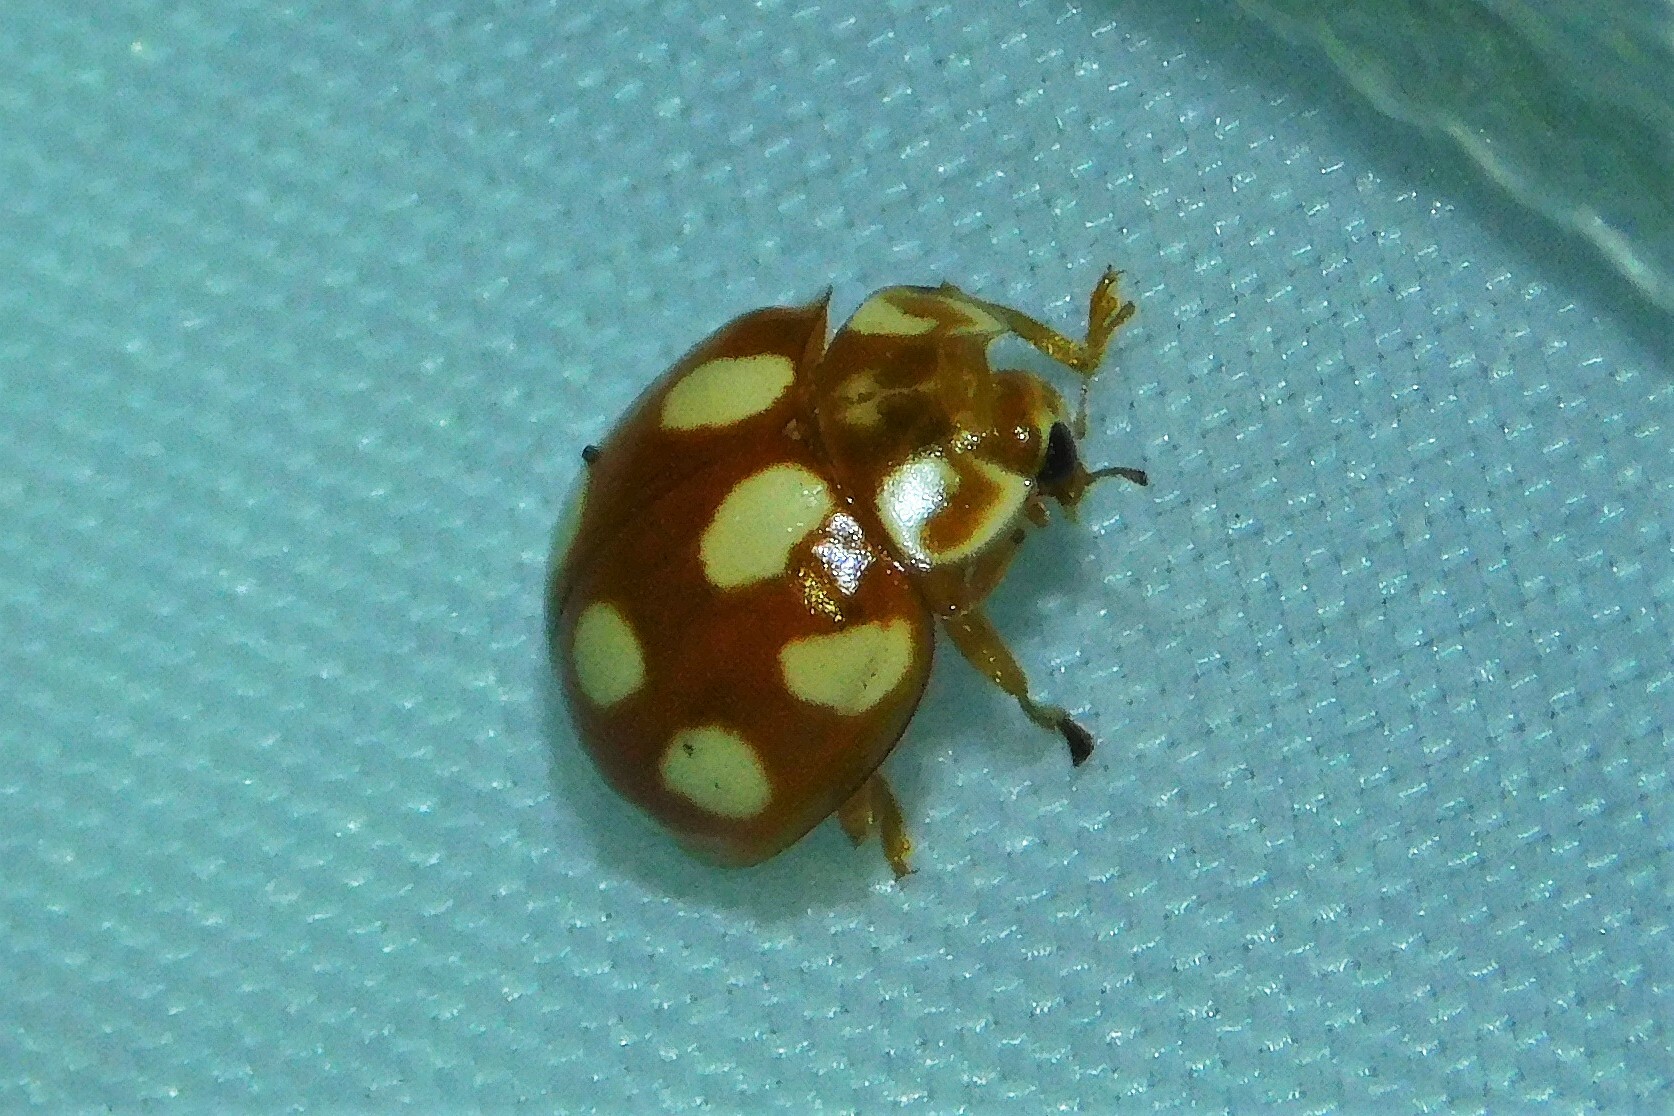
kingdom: Animalia
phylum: Arthropoda
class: Insecta
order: Coleoptera
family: Coccinellidae
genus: Calvia
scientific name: Calvia decemguttata
